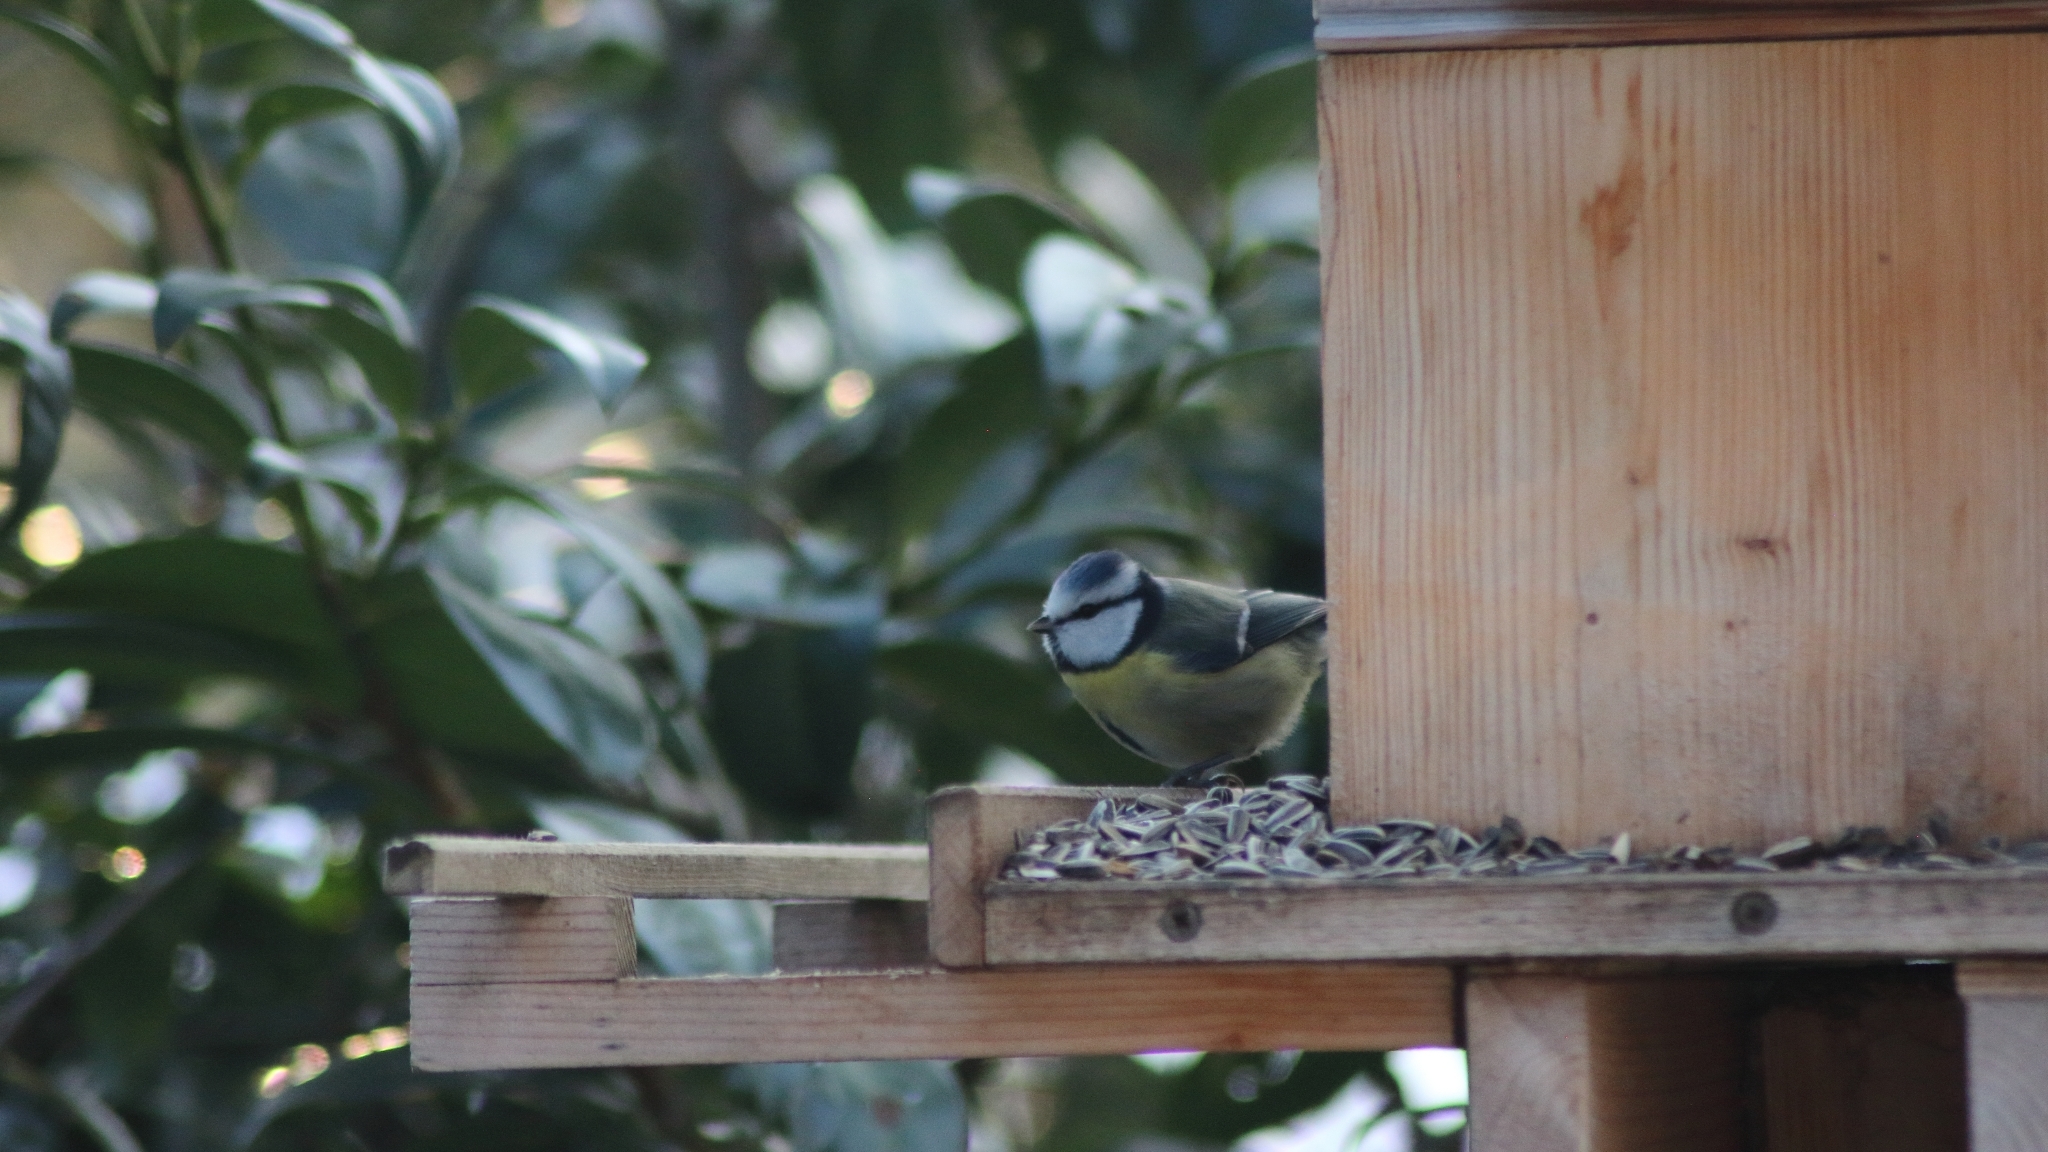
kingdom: Animalia
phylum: Chordata
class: Aves
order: Passeriformes
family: Paridae
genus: Cyanistes
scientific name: Cyanistes caeruleus
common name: Eurasian blue tit
